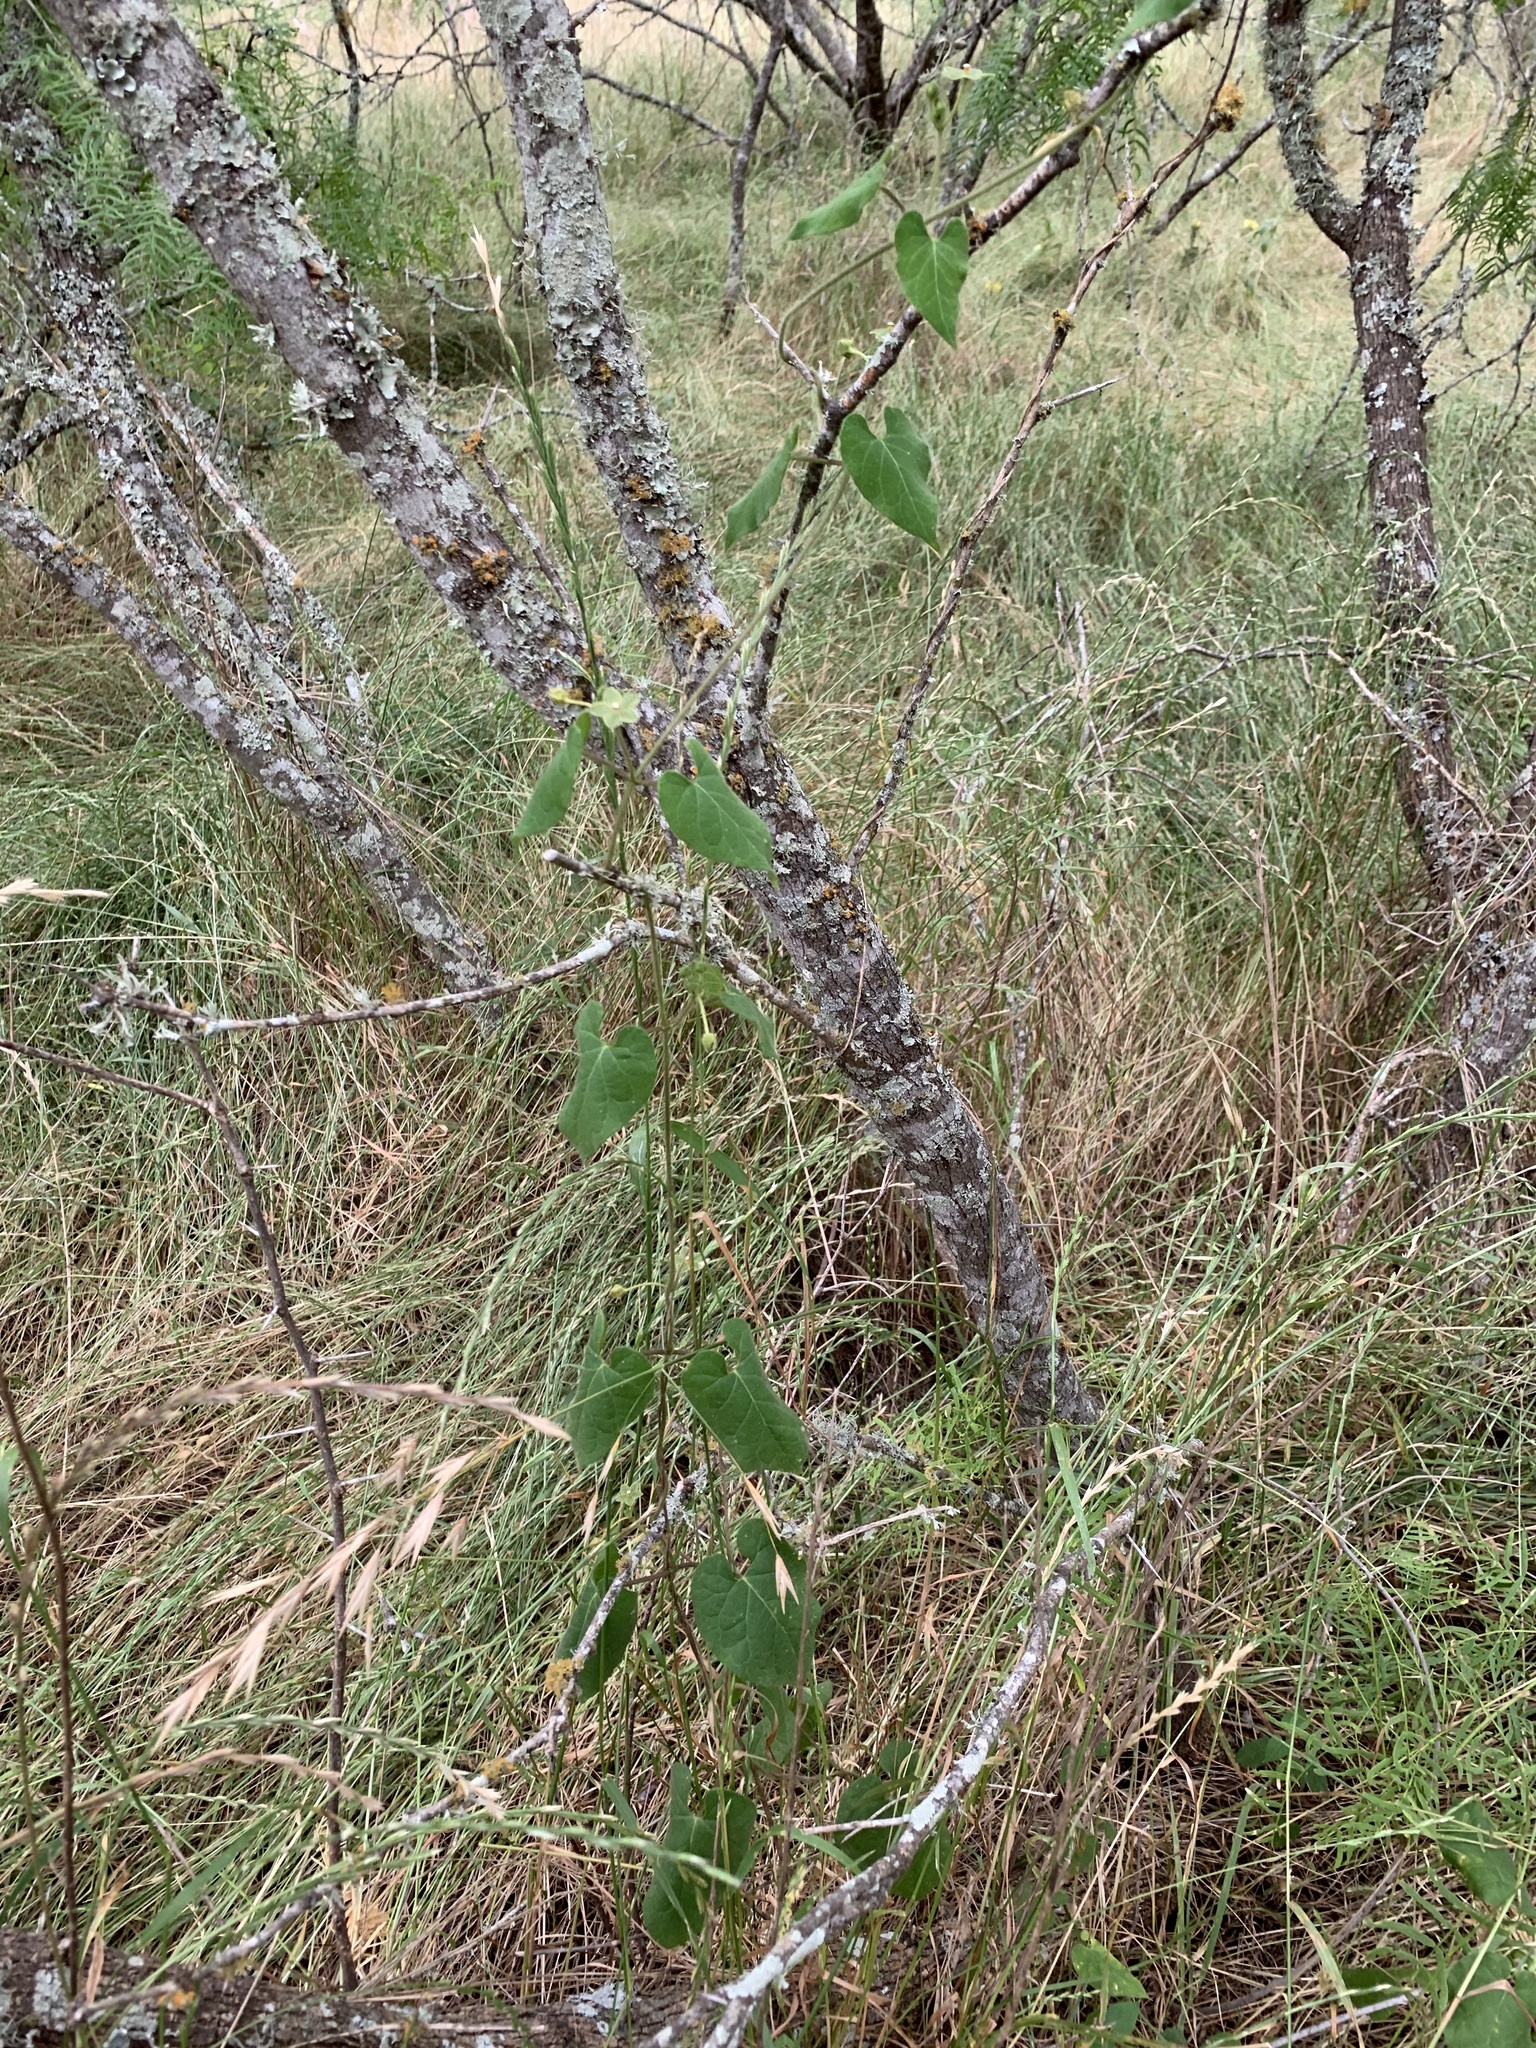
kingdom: Plantae
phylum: Tracheophyta
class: Magnoliopsida
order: Gentianales
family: Apocynaceae
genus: Dictyanthus
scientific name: Dictyanthus reticulatus
